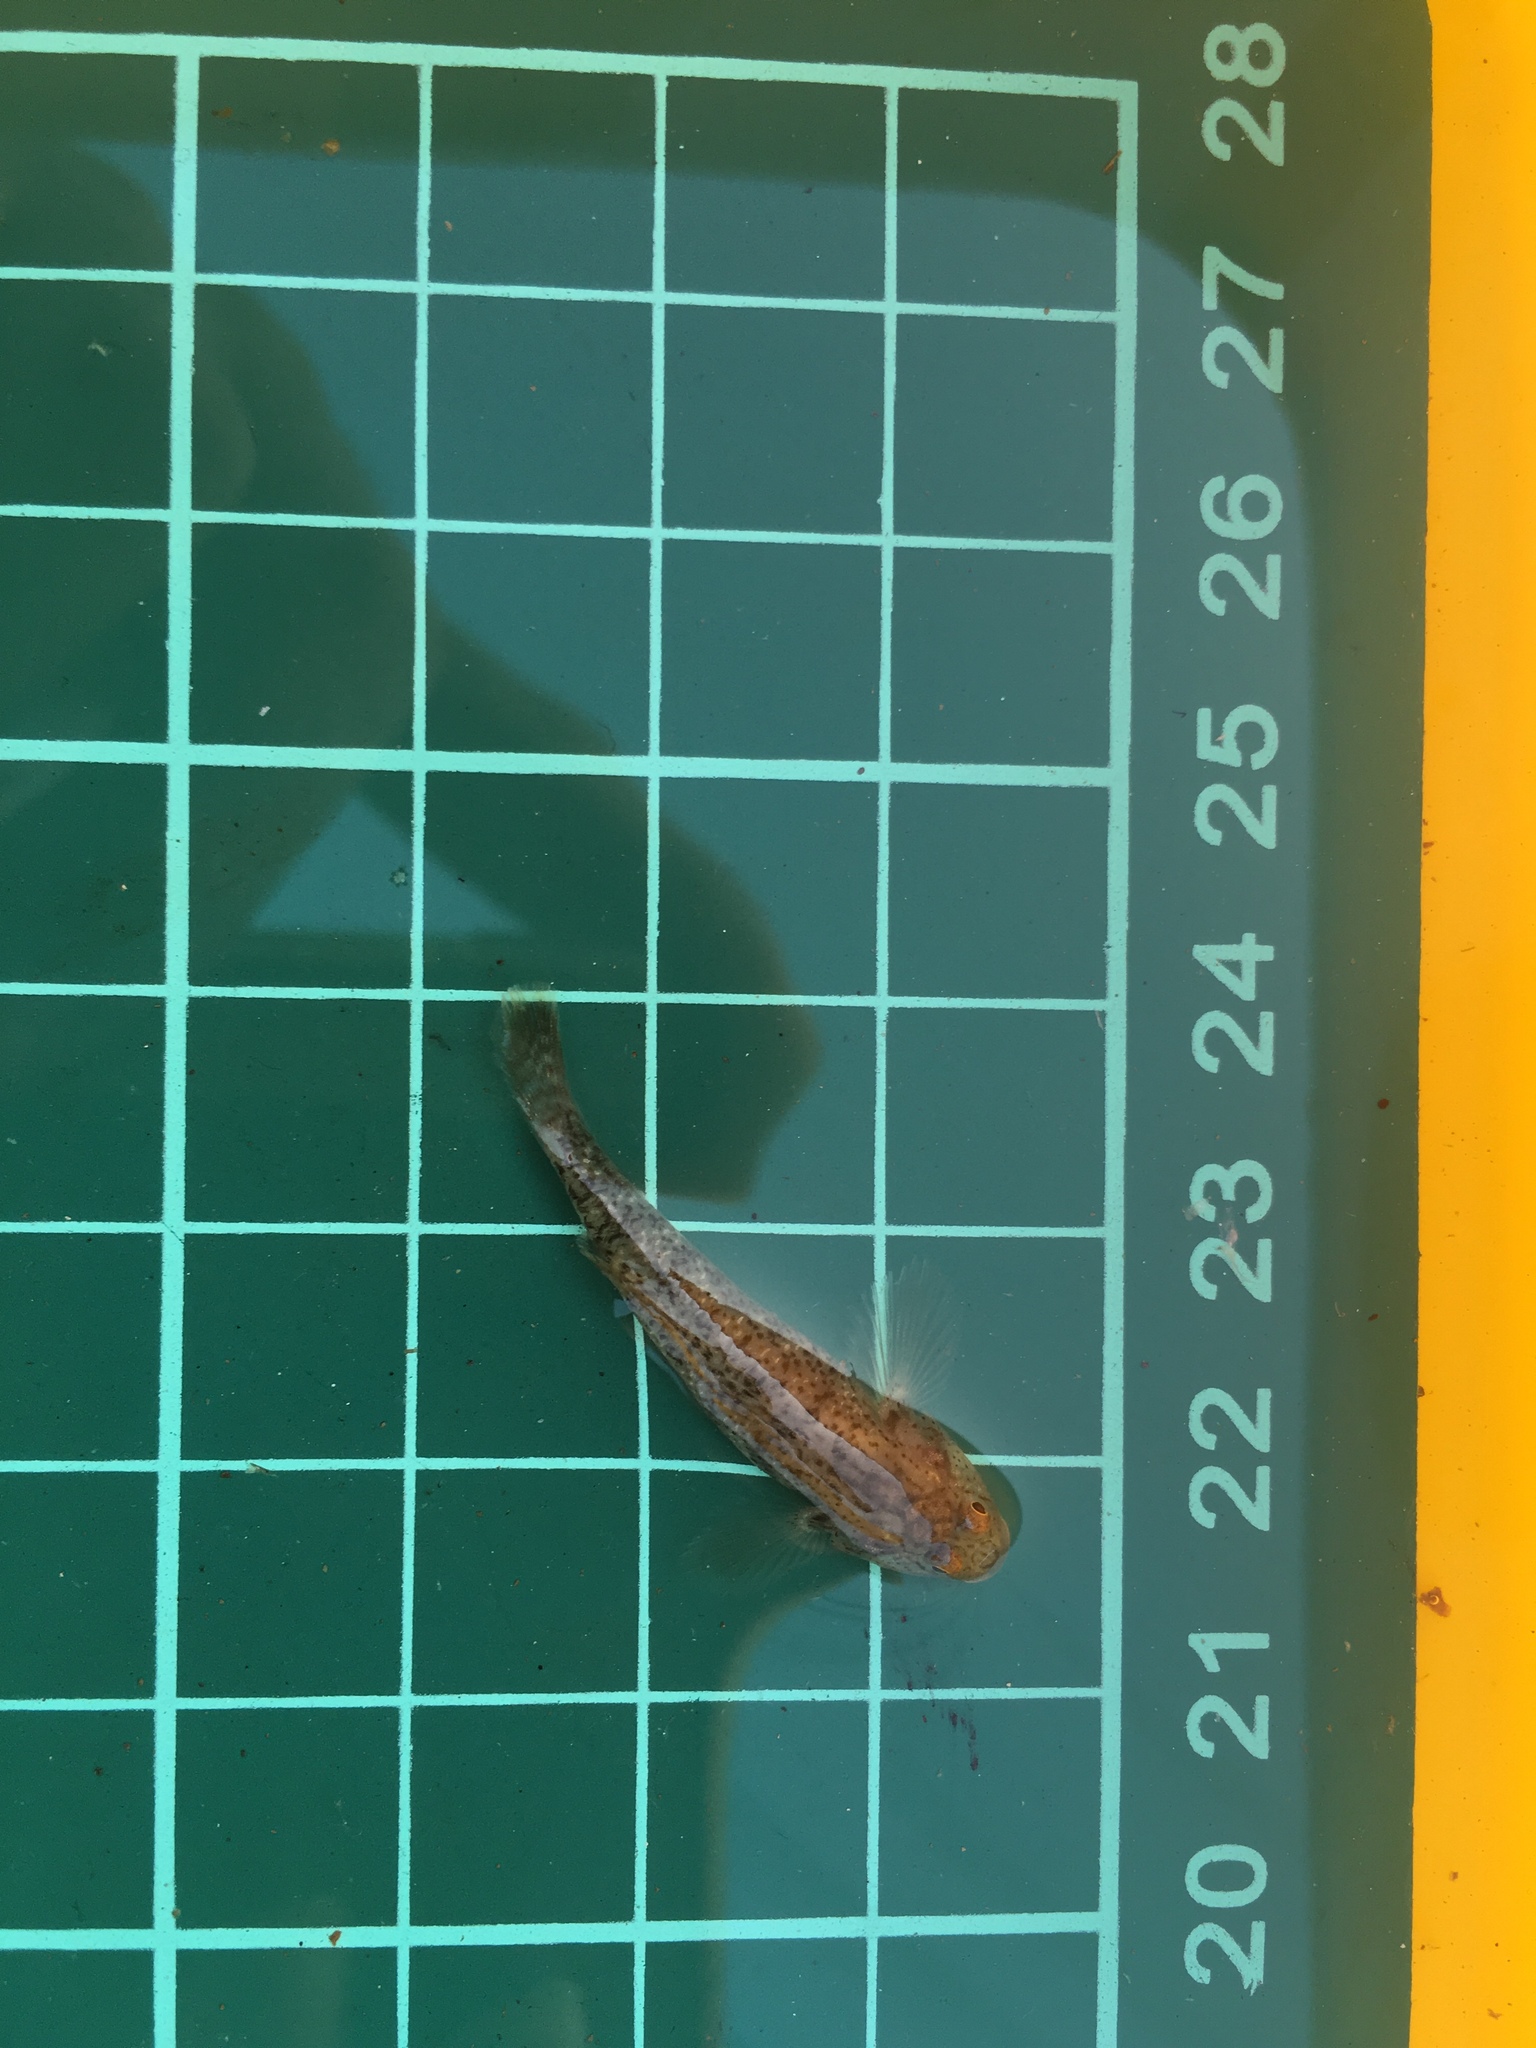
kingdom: Animalia
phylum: Chordata
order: Perciformes
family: Gobiidae
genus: Rhinogobius
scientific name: Rhinogobius rubromaculatus
